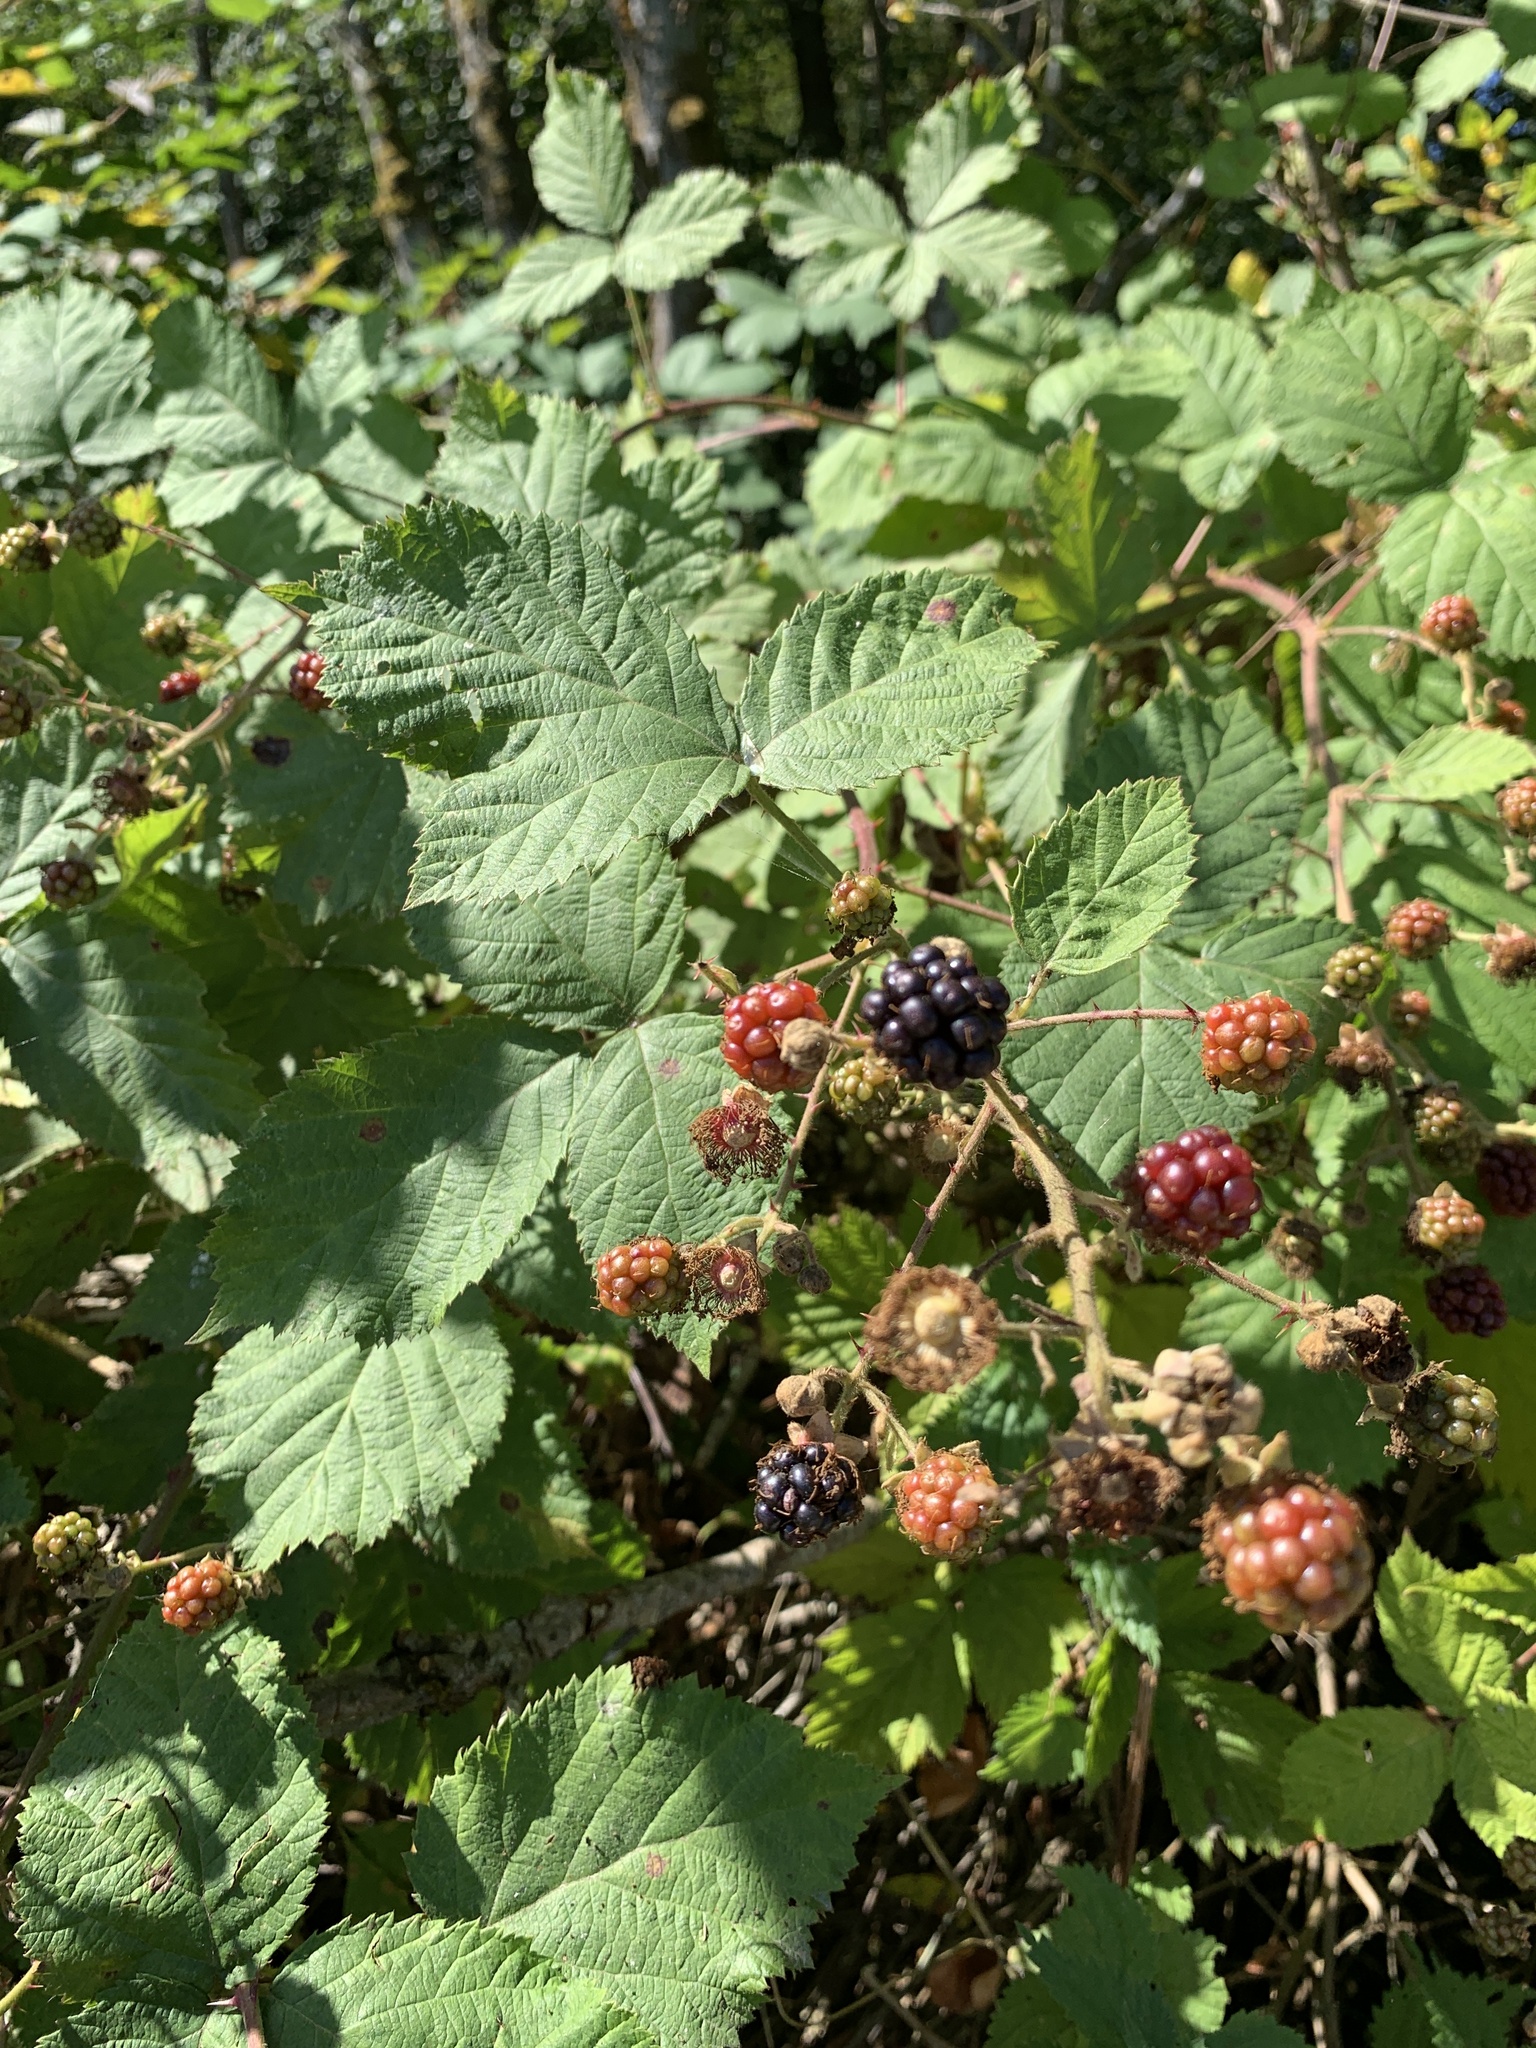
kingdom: Plantae
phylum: Tracheophyta
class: Magnoliopsida
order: Rosales
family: Rosaceae
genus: Rubus
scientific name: Rubus bifrons
